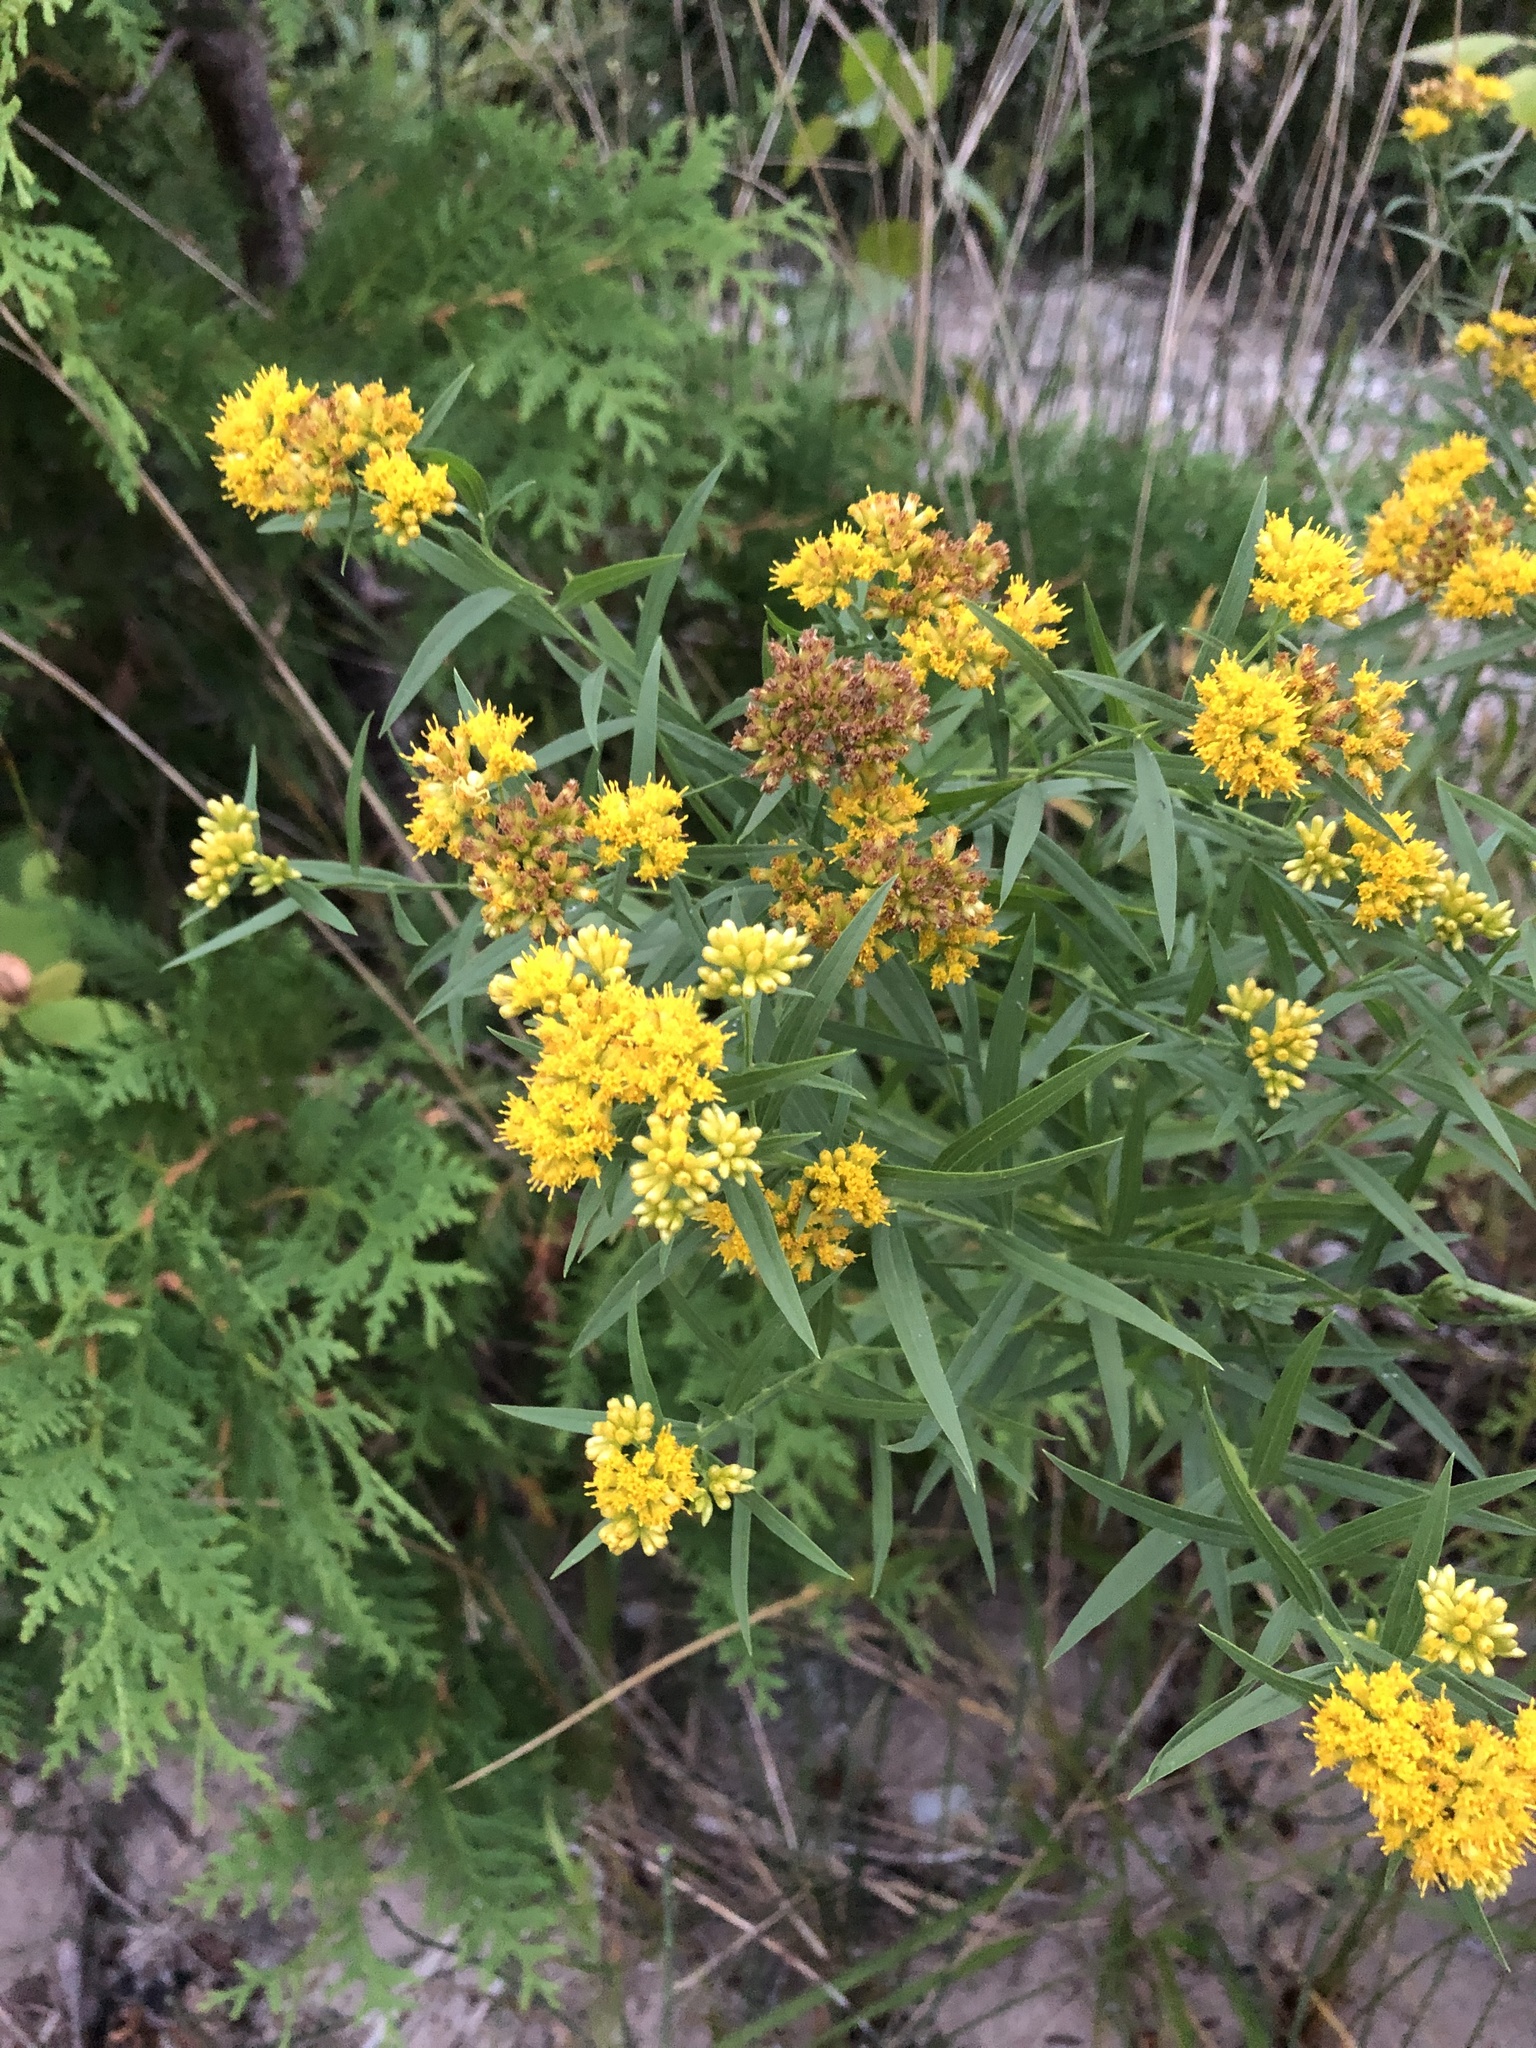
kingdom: Plantae
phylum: Tracheophyta
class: Magnoliopsida
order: Asterales
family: Asteraceae
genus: Euthamia
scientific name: Euthamia graminifolia
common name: Common goldentop
